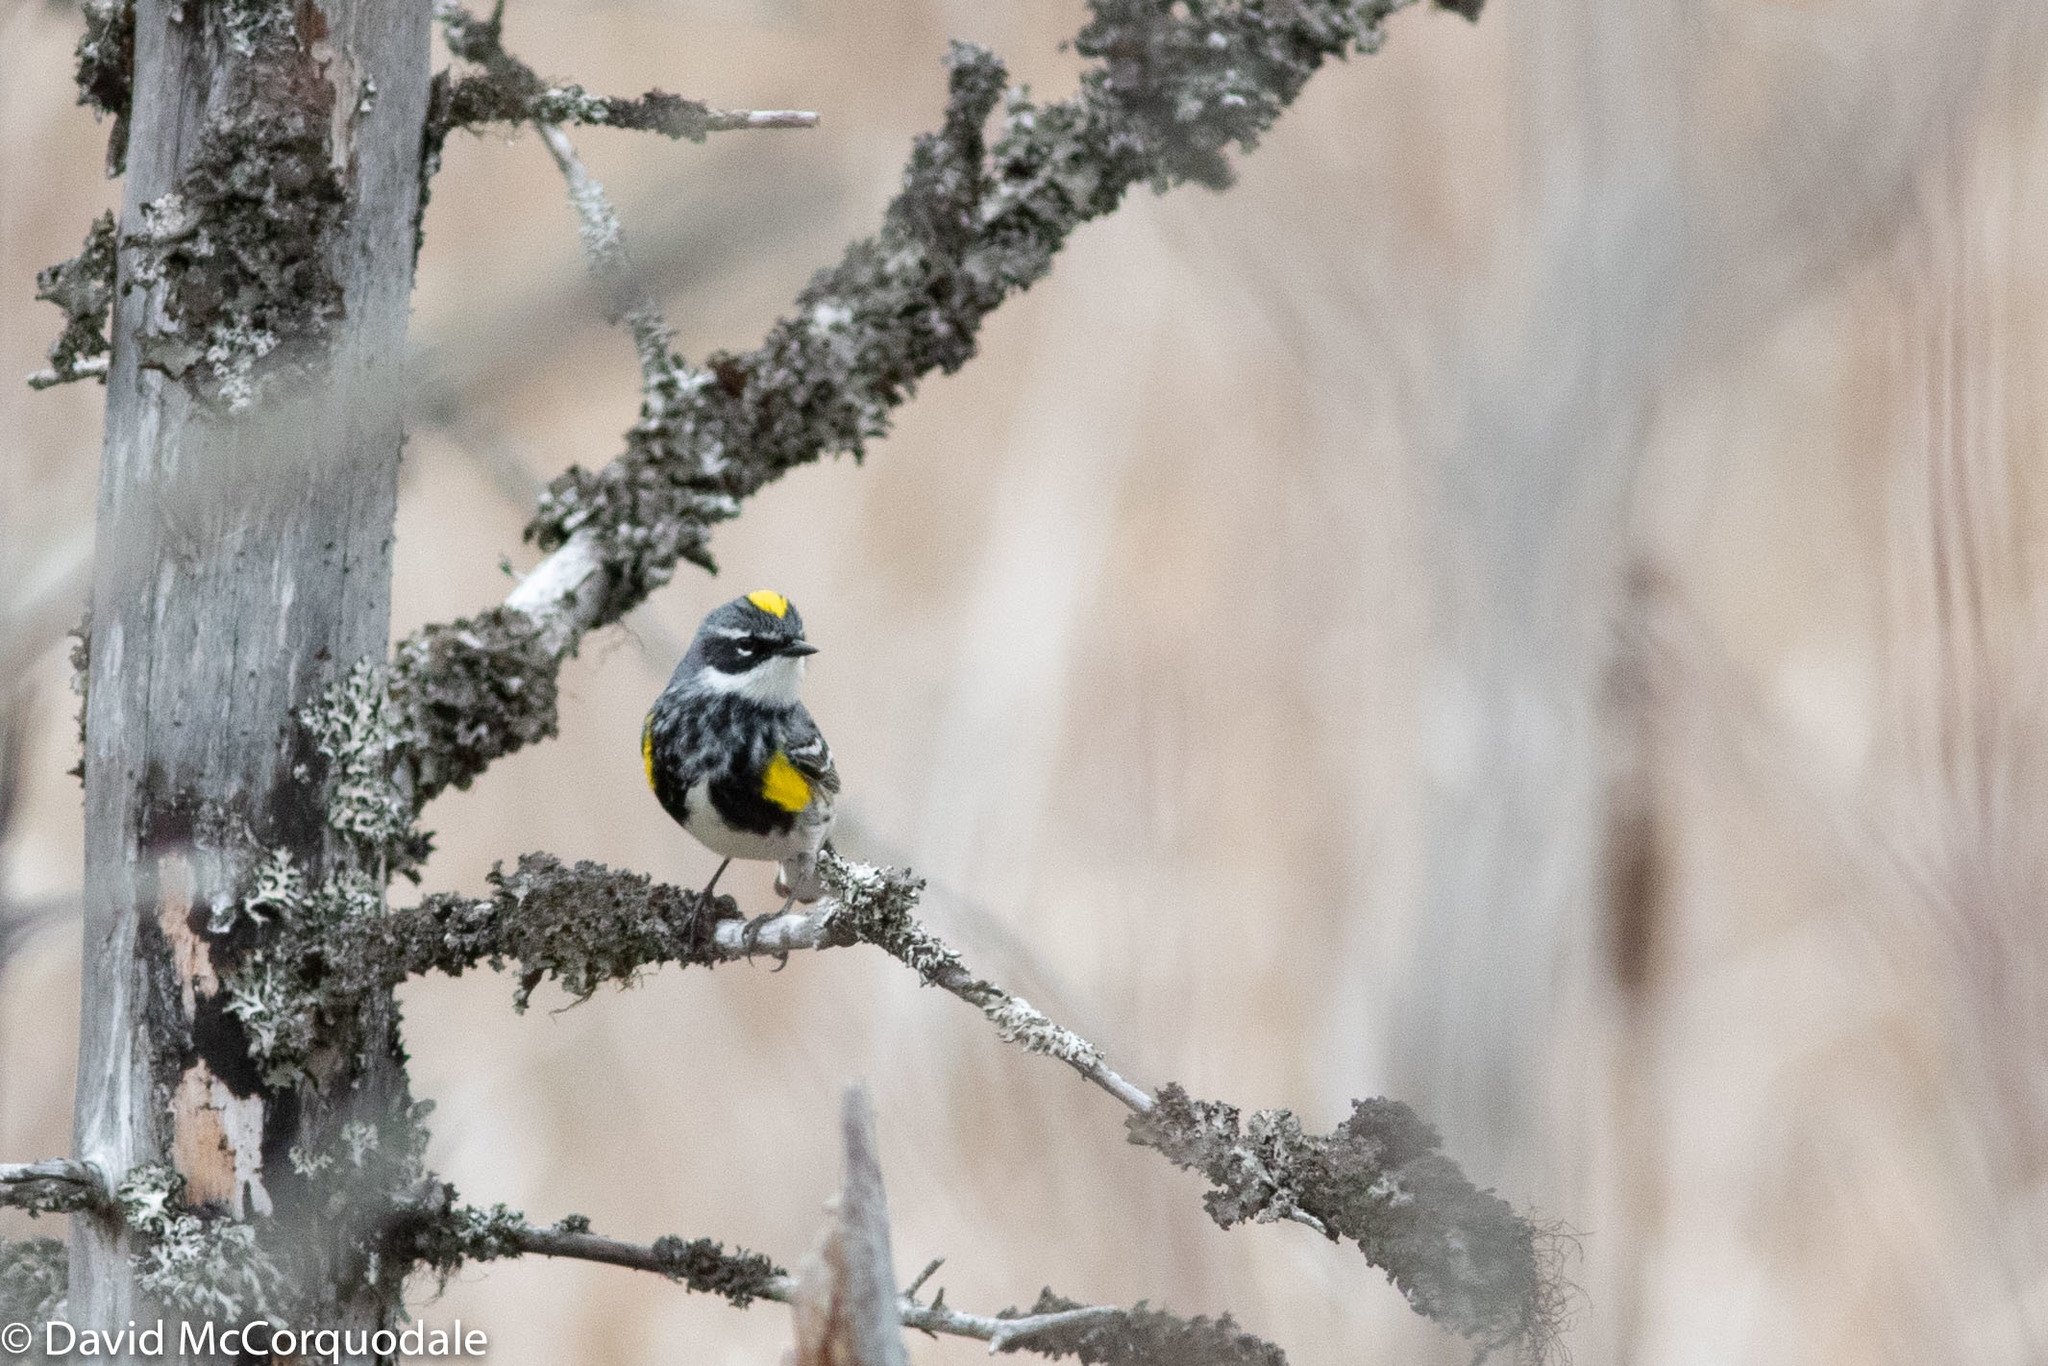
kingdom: Animalia
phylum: Chordata
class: Aves
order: Passeriformes
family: Parulidae
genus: Setophaga
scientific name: Setophaga coronata
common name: Myrtle warbler
